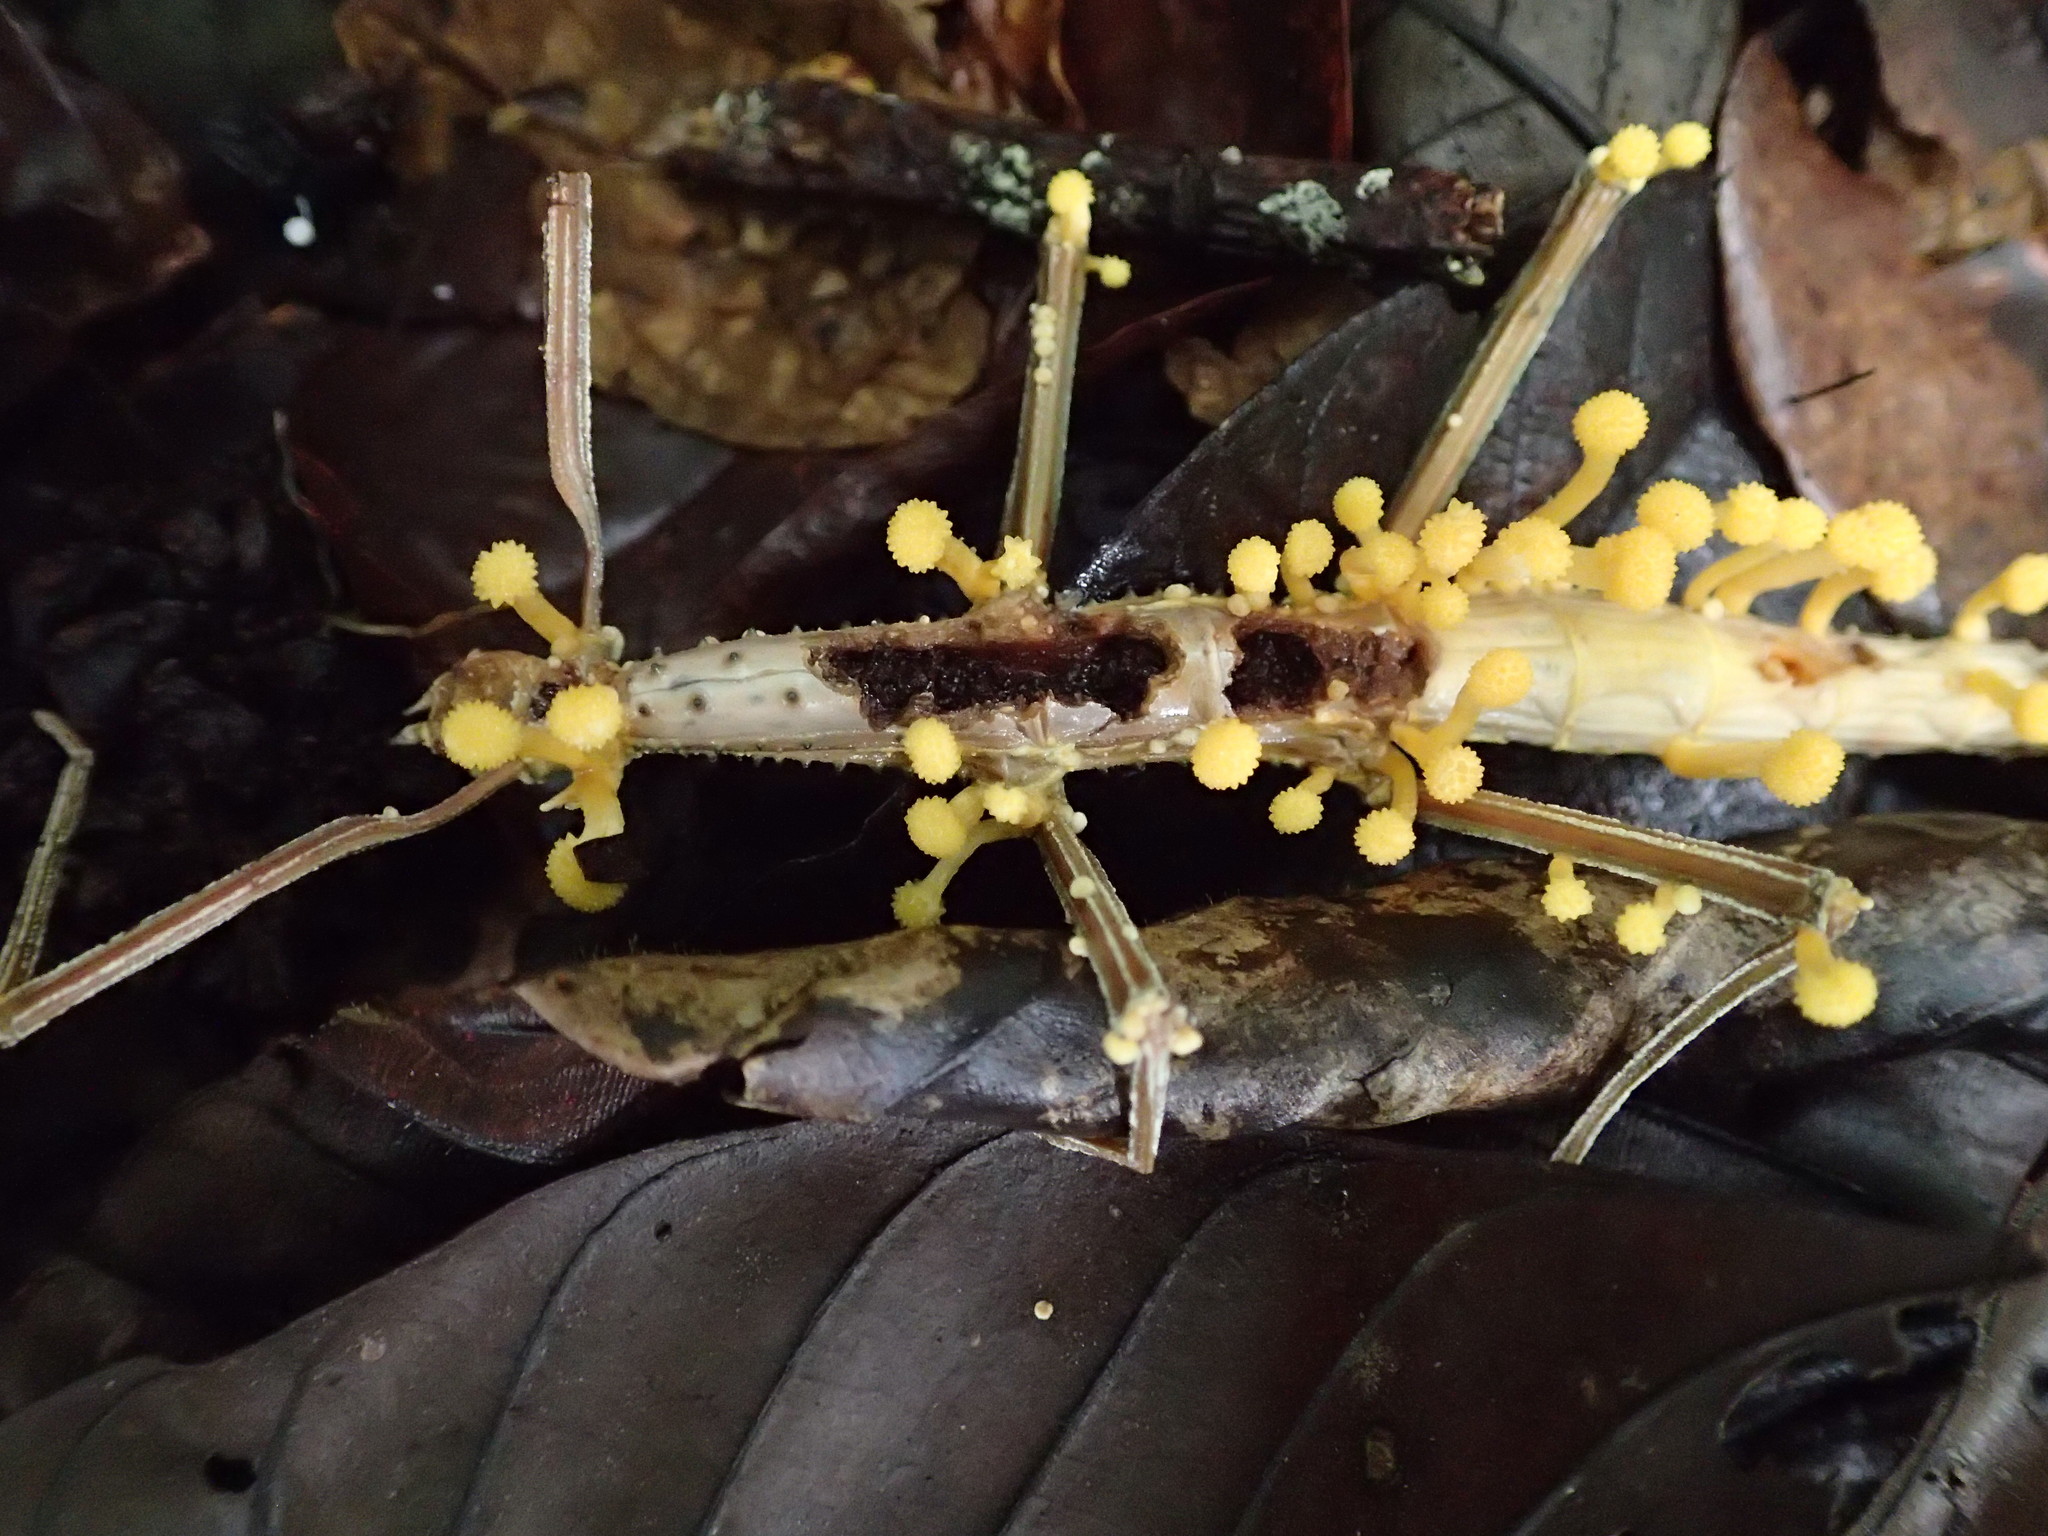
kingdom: Fungi
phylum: Ascomycota
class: Sordariomycetes
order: Hypocreales
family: Cordycipitaceae
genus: Beauveria
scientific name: Beauveria diapheromeriphila
